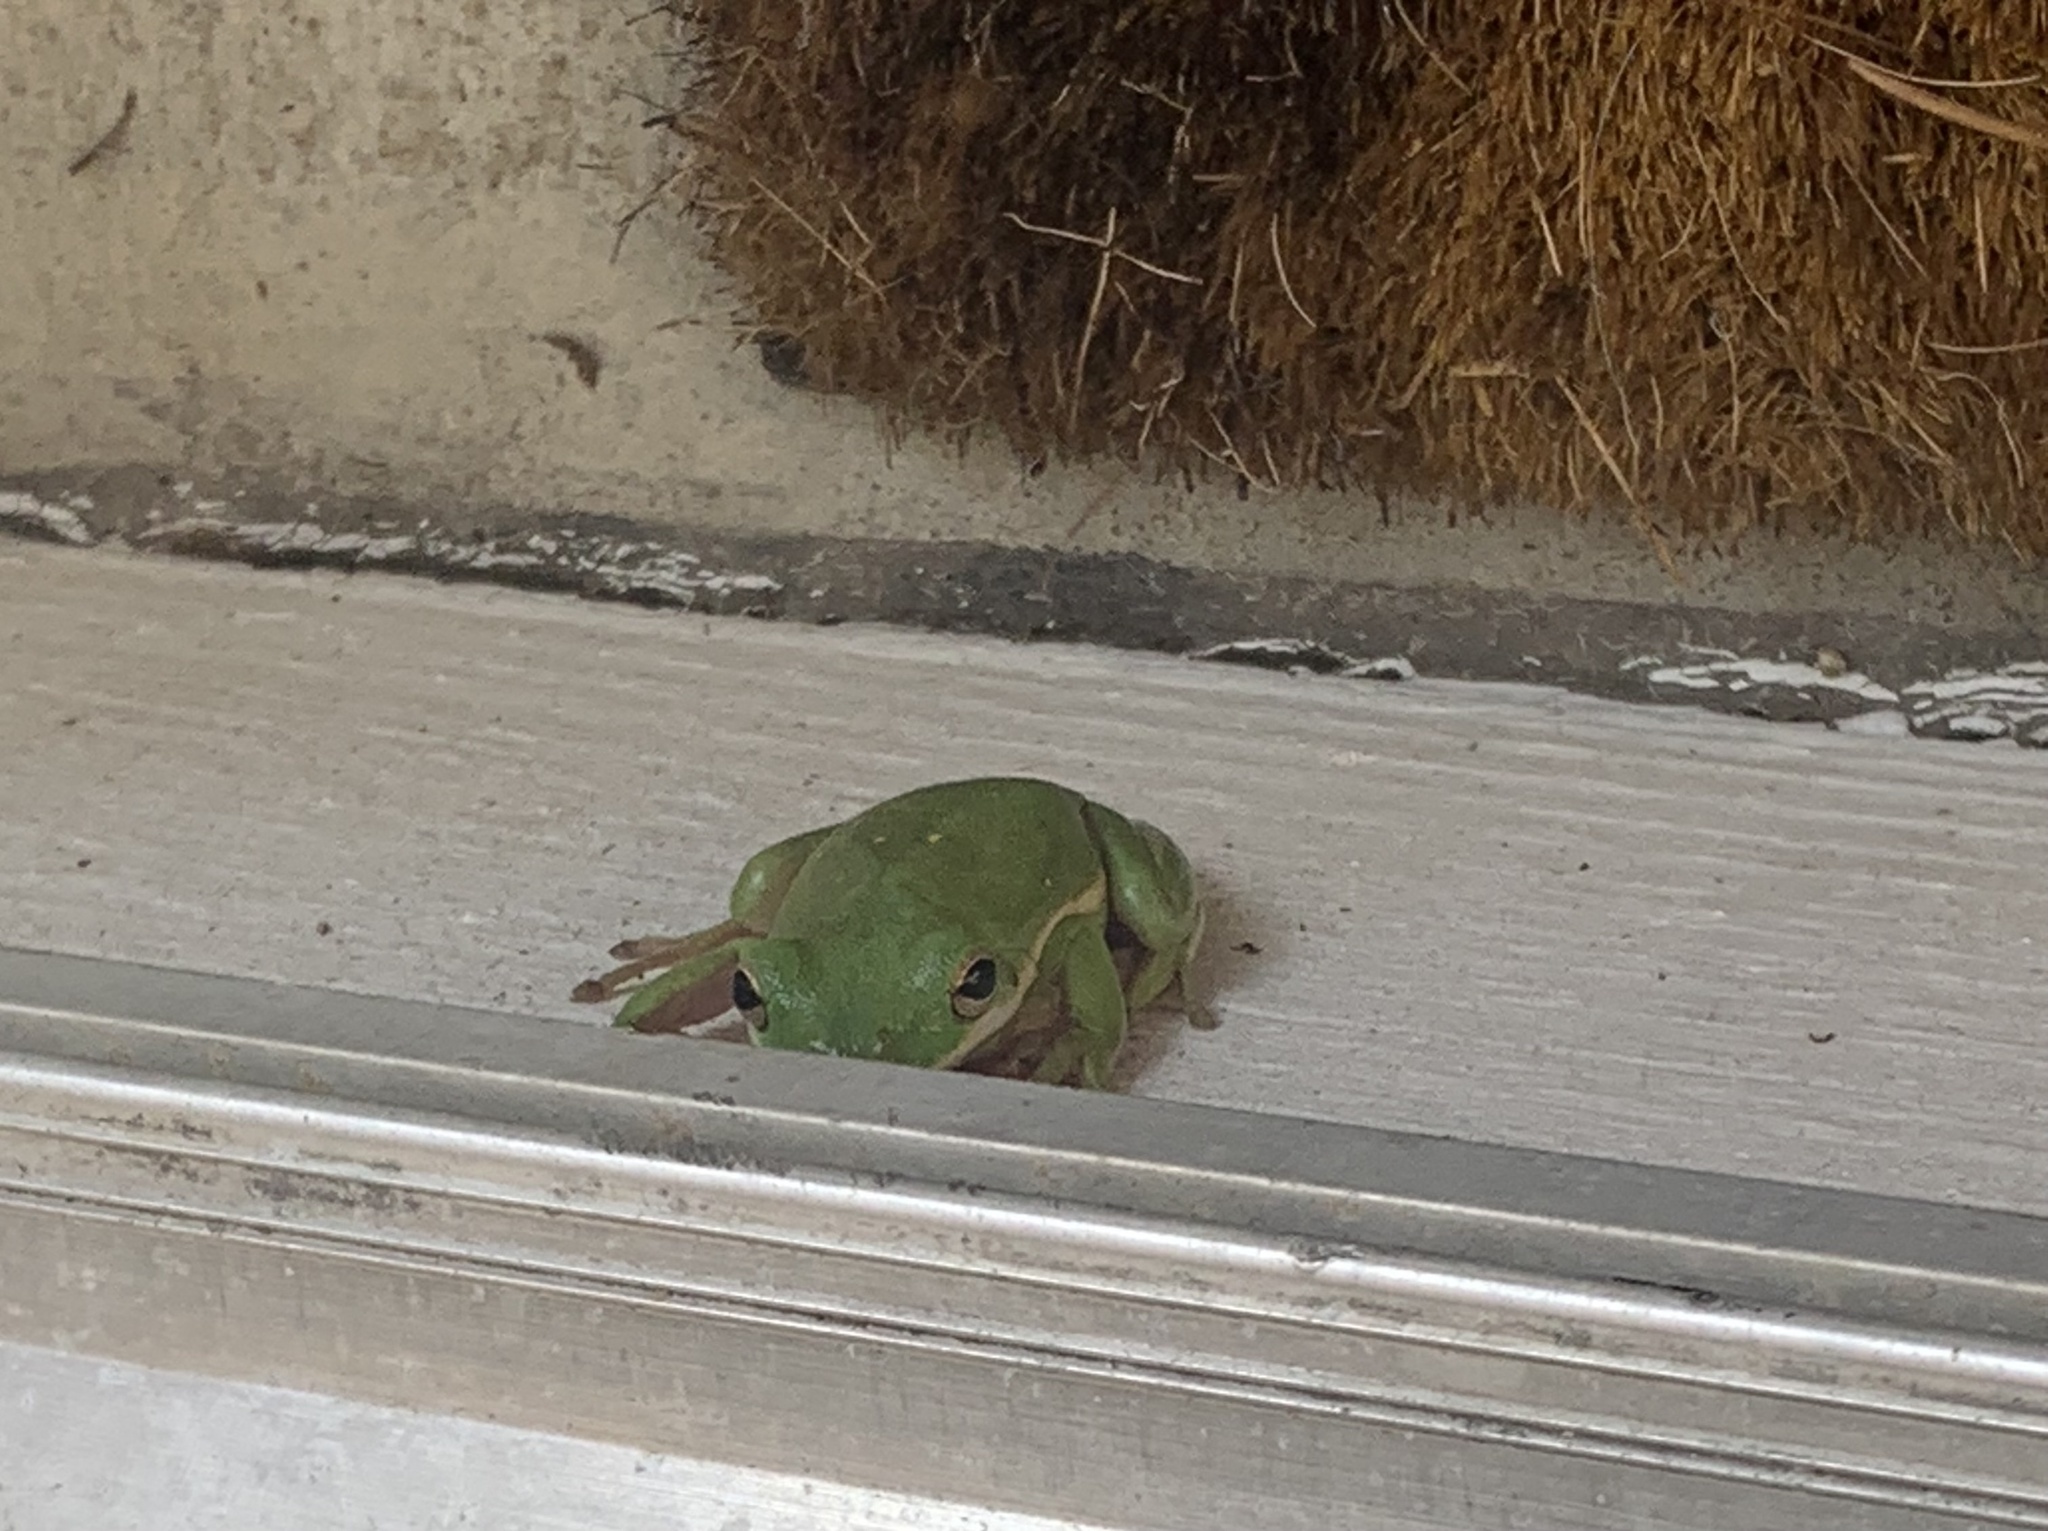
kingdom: Animalia
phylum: Chordata
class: Amphibia
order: Anura
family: Hylidae
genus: Dryophytes
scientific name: Dryophytes cinereus
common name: Green treefrog
